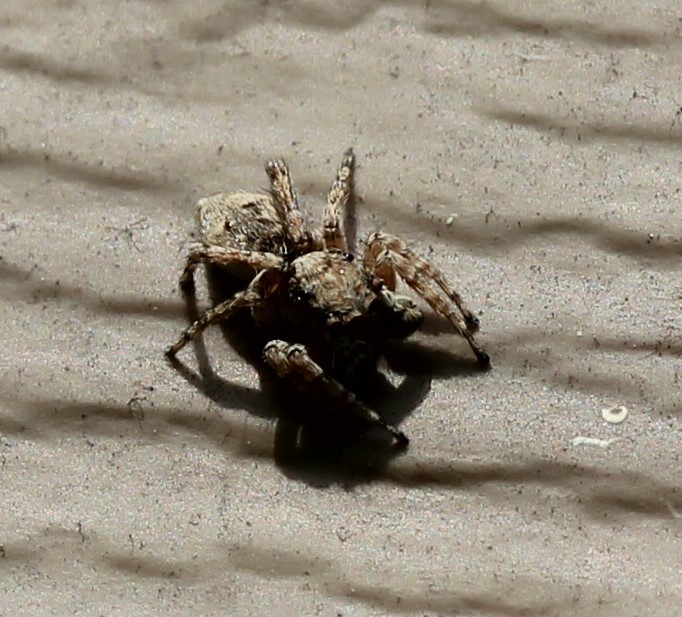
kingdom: Animalia
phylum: Arthropoda
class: Arachnida
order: Araneae
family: Salticidae
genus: Attulus
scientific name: Attulus fasciger
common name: Asiatic wall jumping spider
